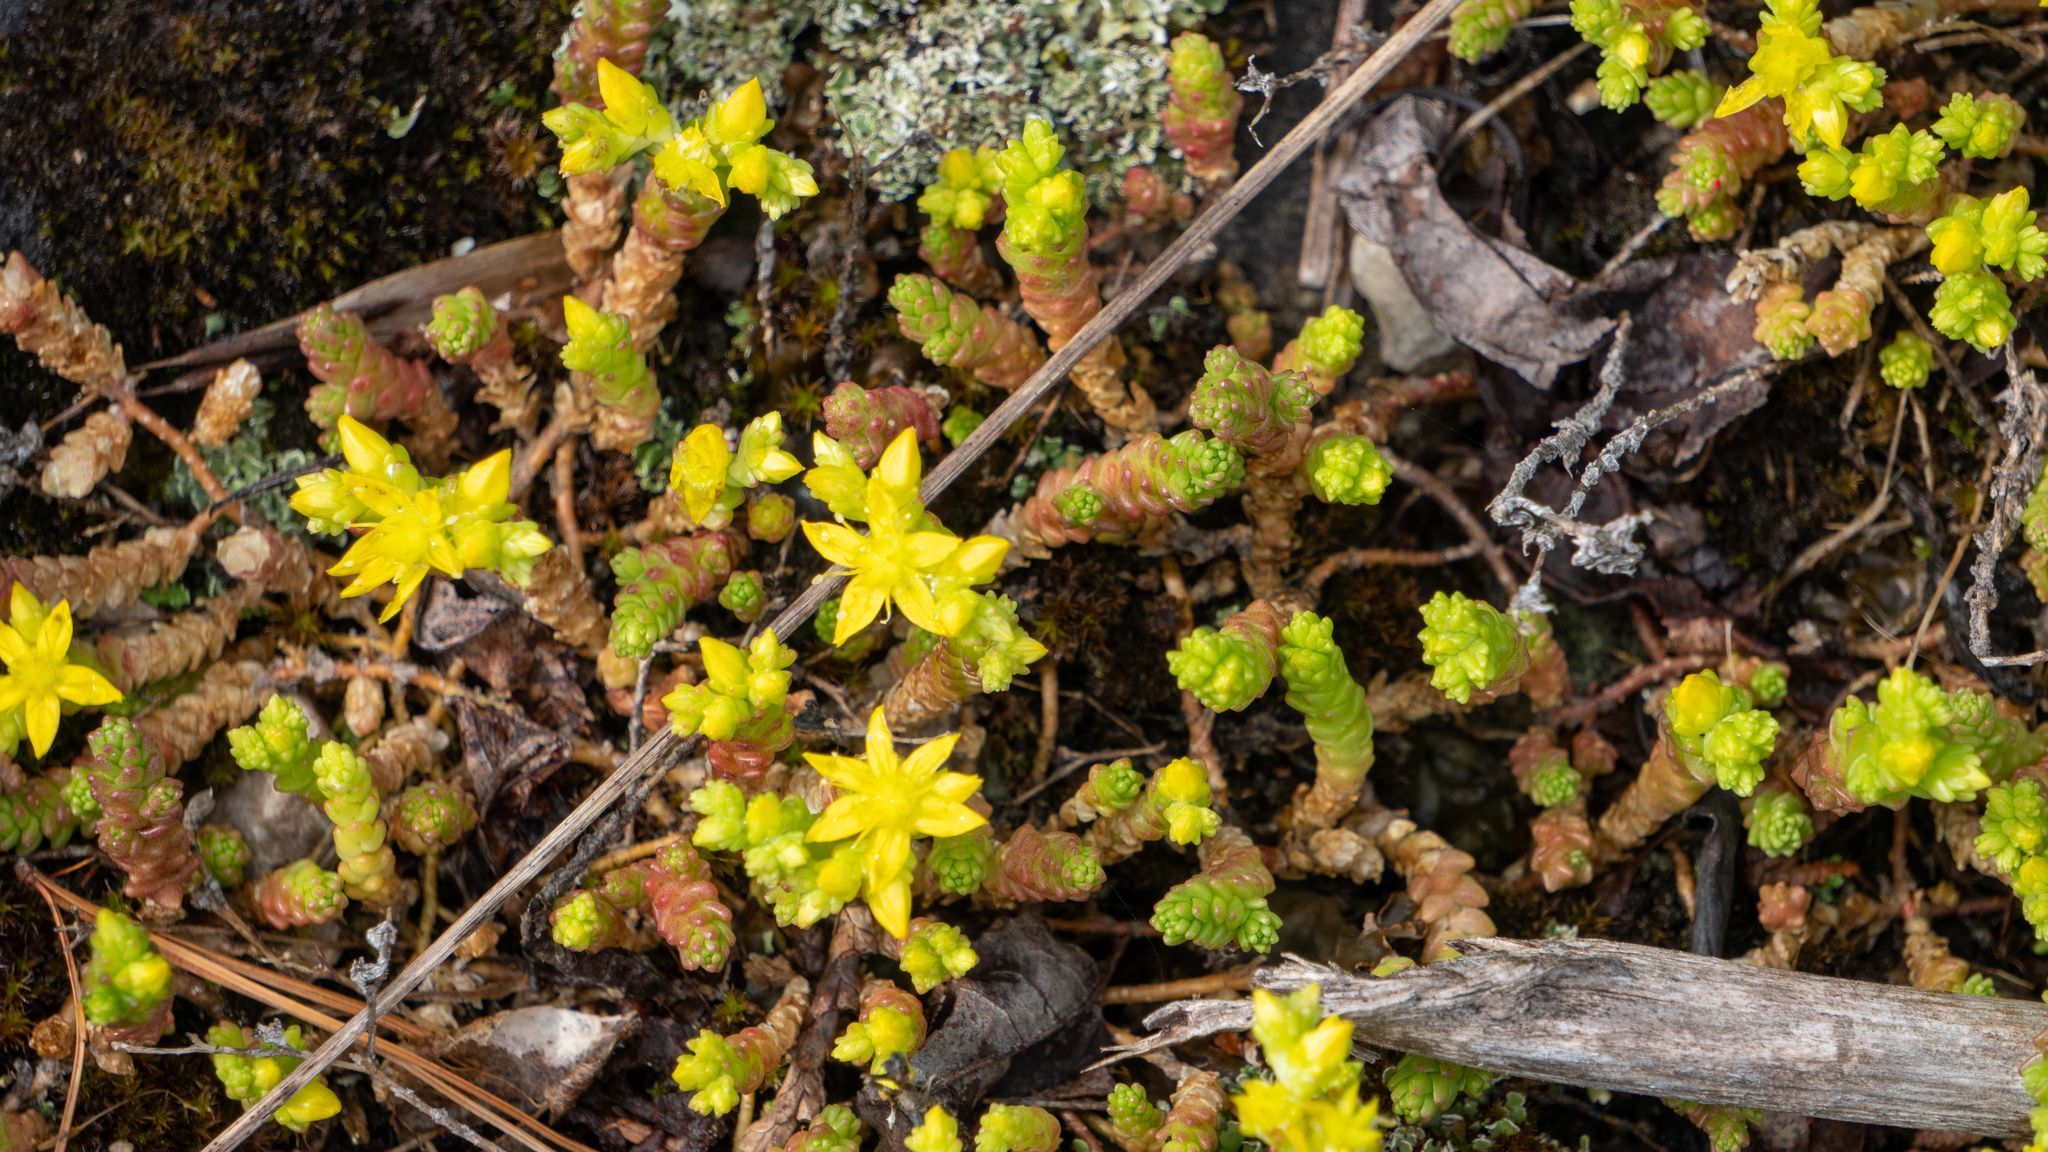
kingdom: Plantae
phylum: Tracheophyta
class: Magnoliopsida
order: Saxifragales
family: Crassulaceae
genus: Sedum
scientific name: Sedum acre
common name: Biting stonecrop
